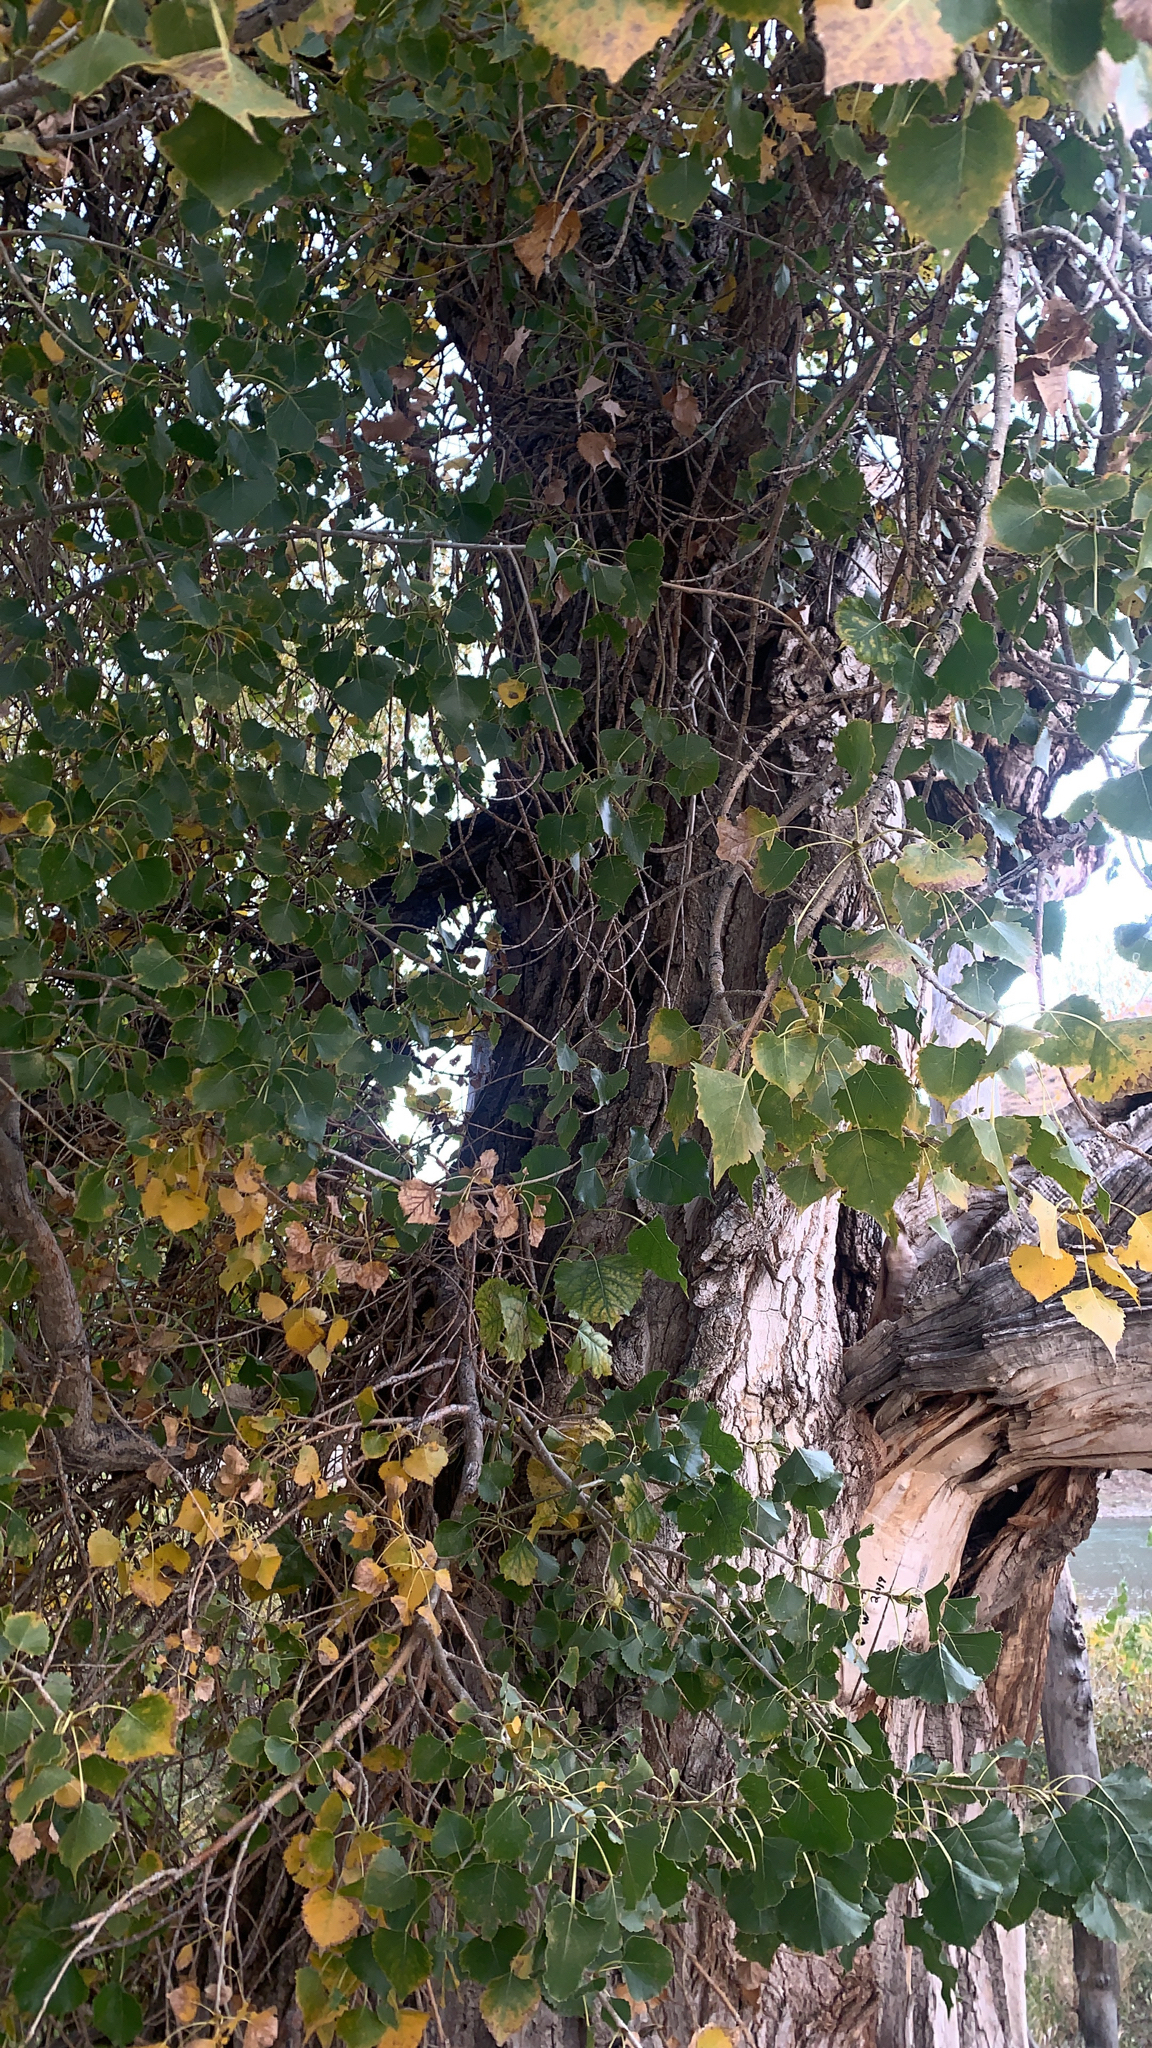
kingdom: Plantae
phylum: Tracheophyta
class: Magnoliopsida
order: Malpighiales
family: Salicaceae
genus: Populus
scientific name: Populus deltoides
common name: Eastern cottonwood
